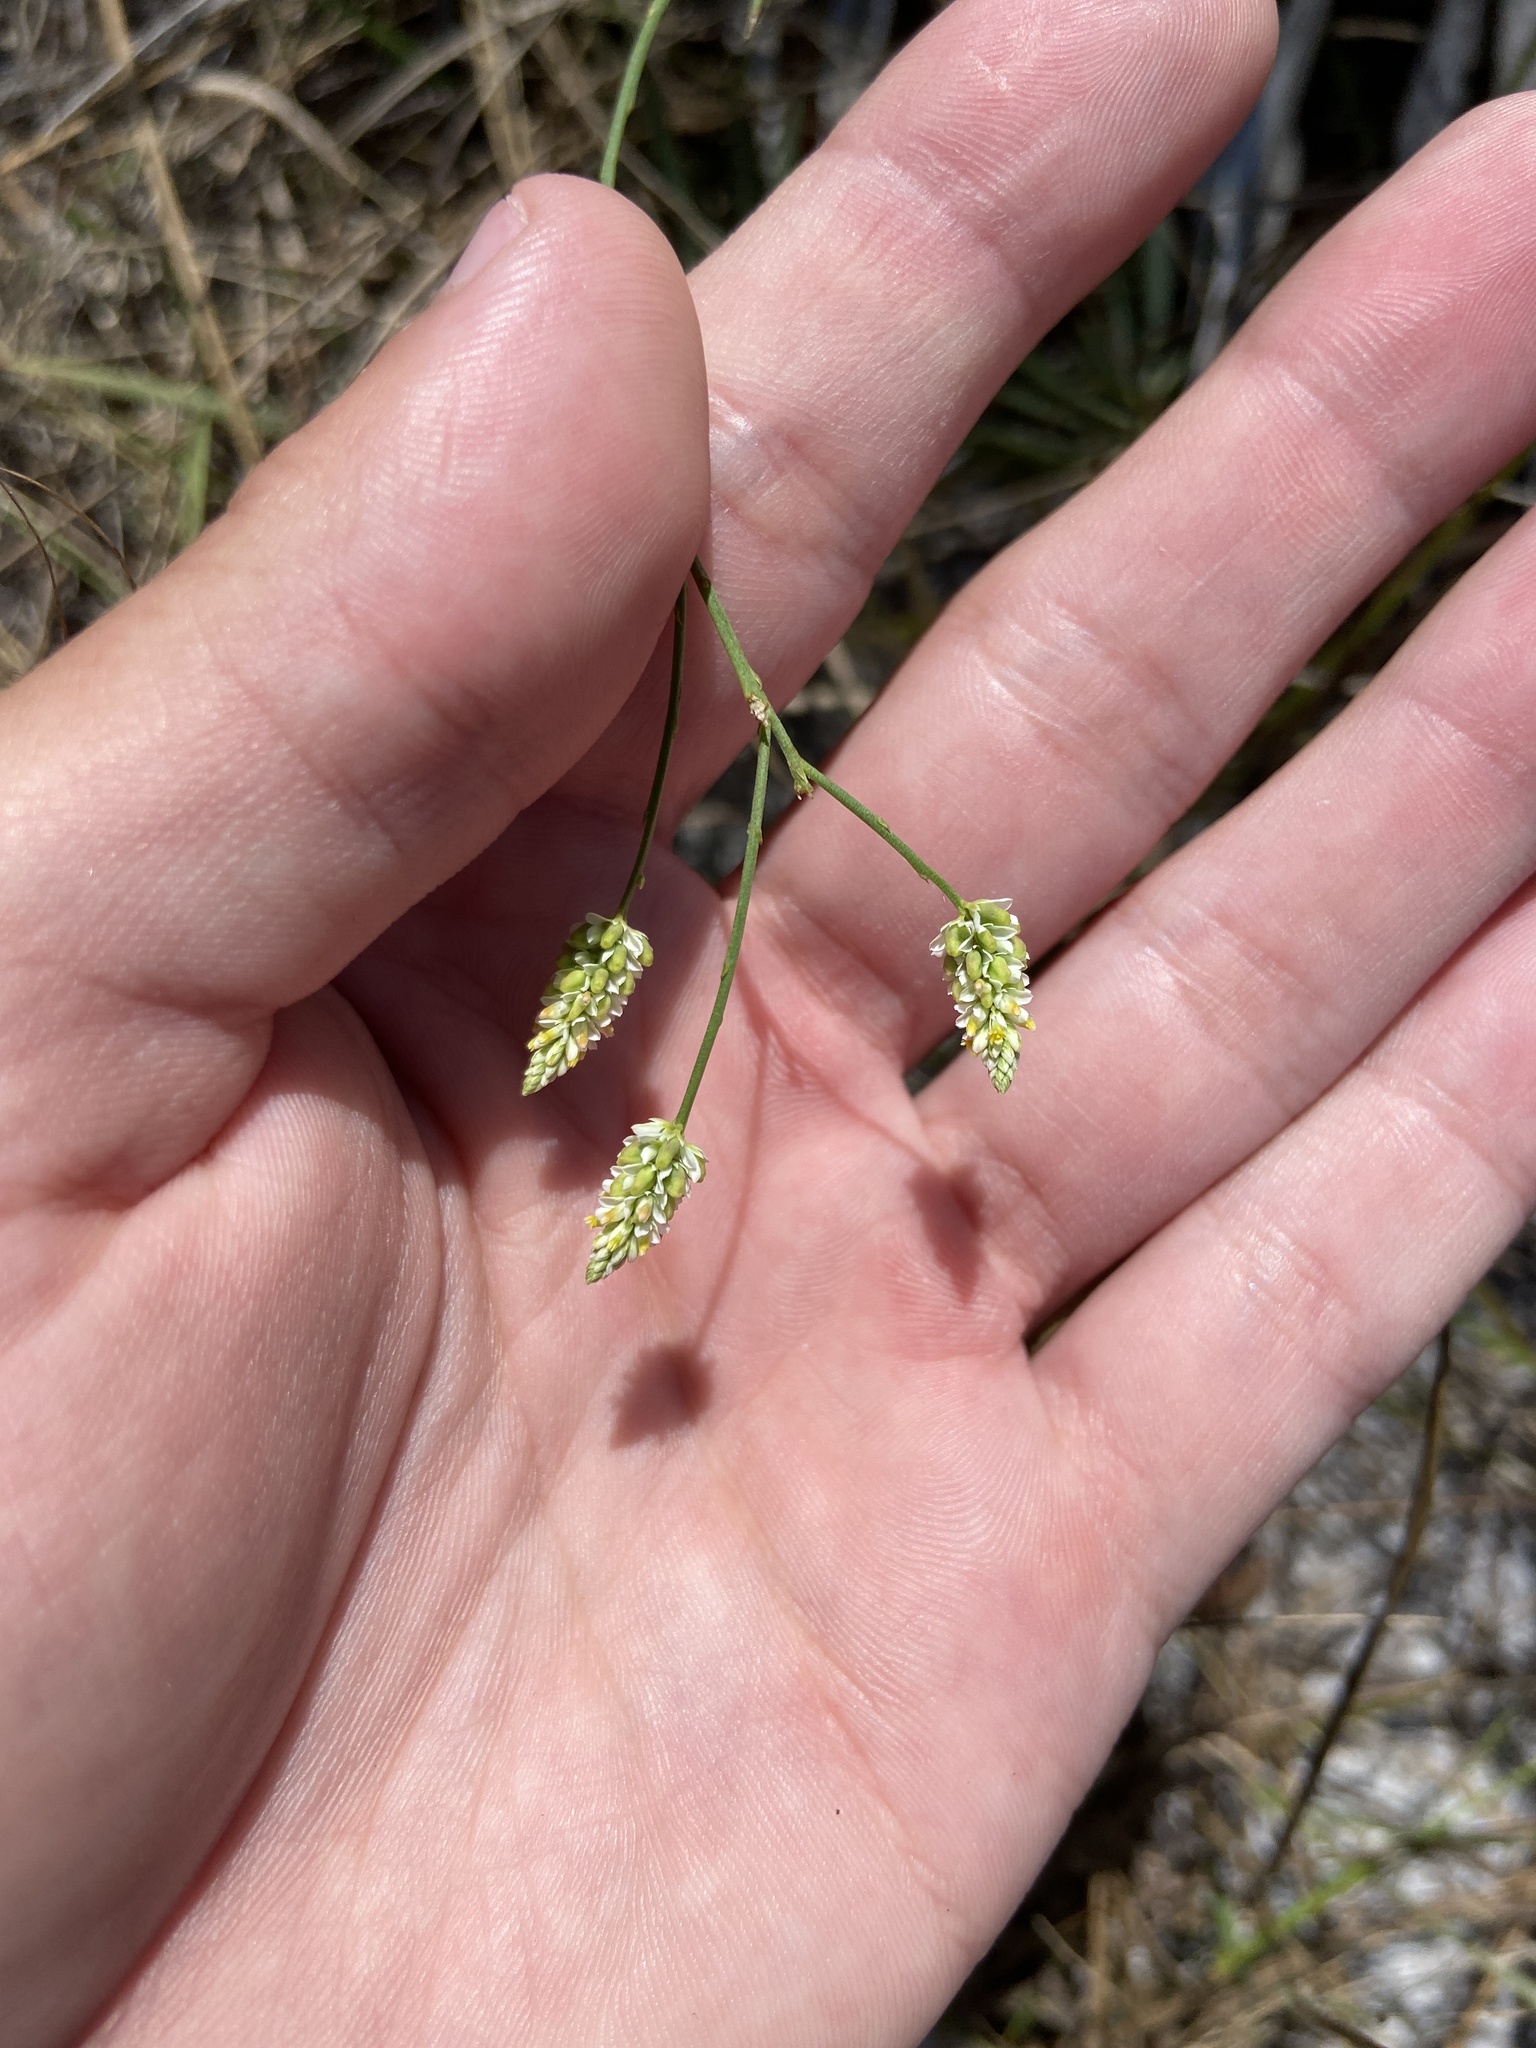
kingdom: Plantae
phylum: Tracheophyta
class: Magnoliopsida
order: Fabales
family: Polygalaceae
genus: Polygala
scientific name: Polygala setacea
